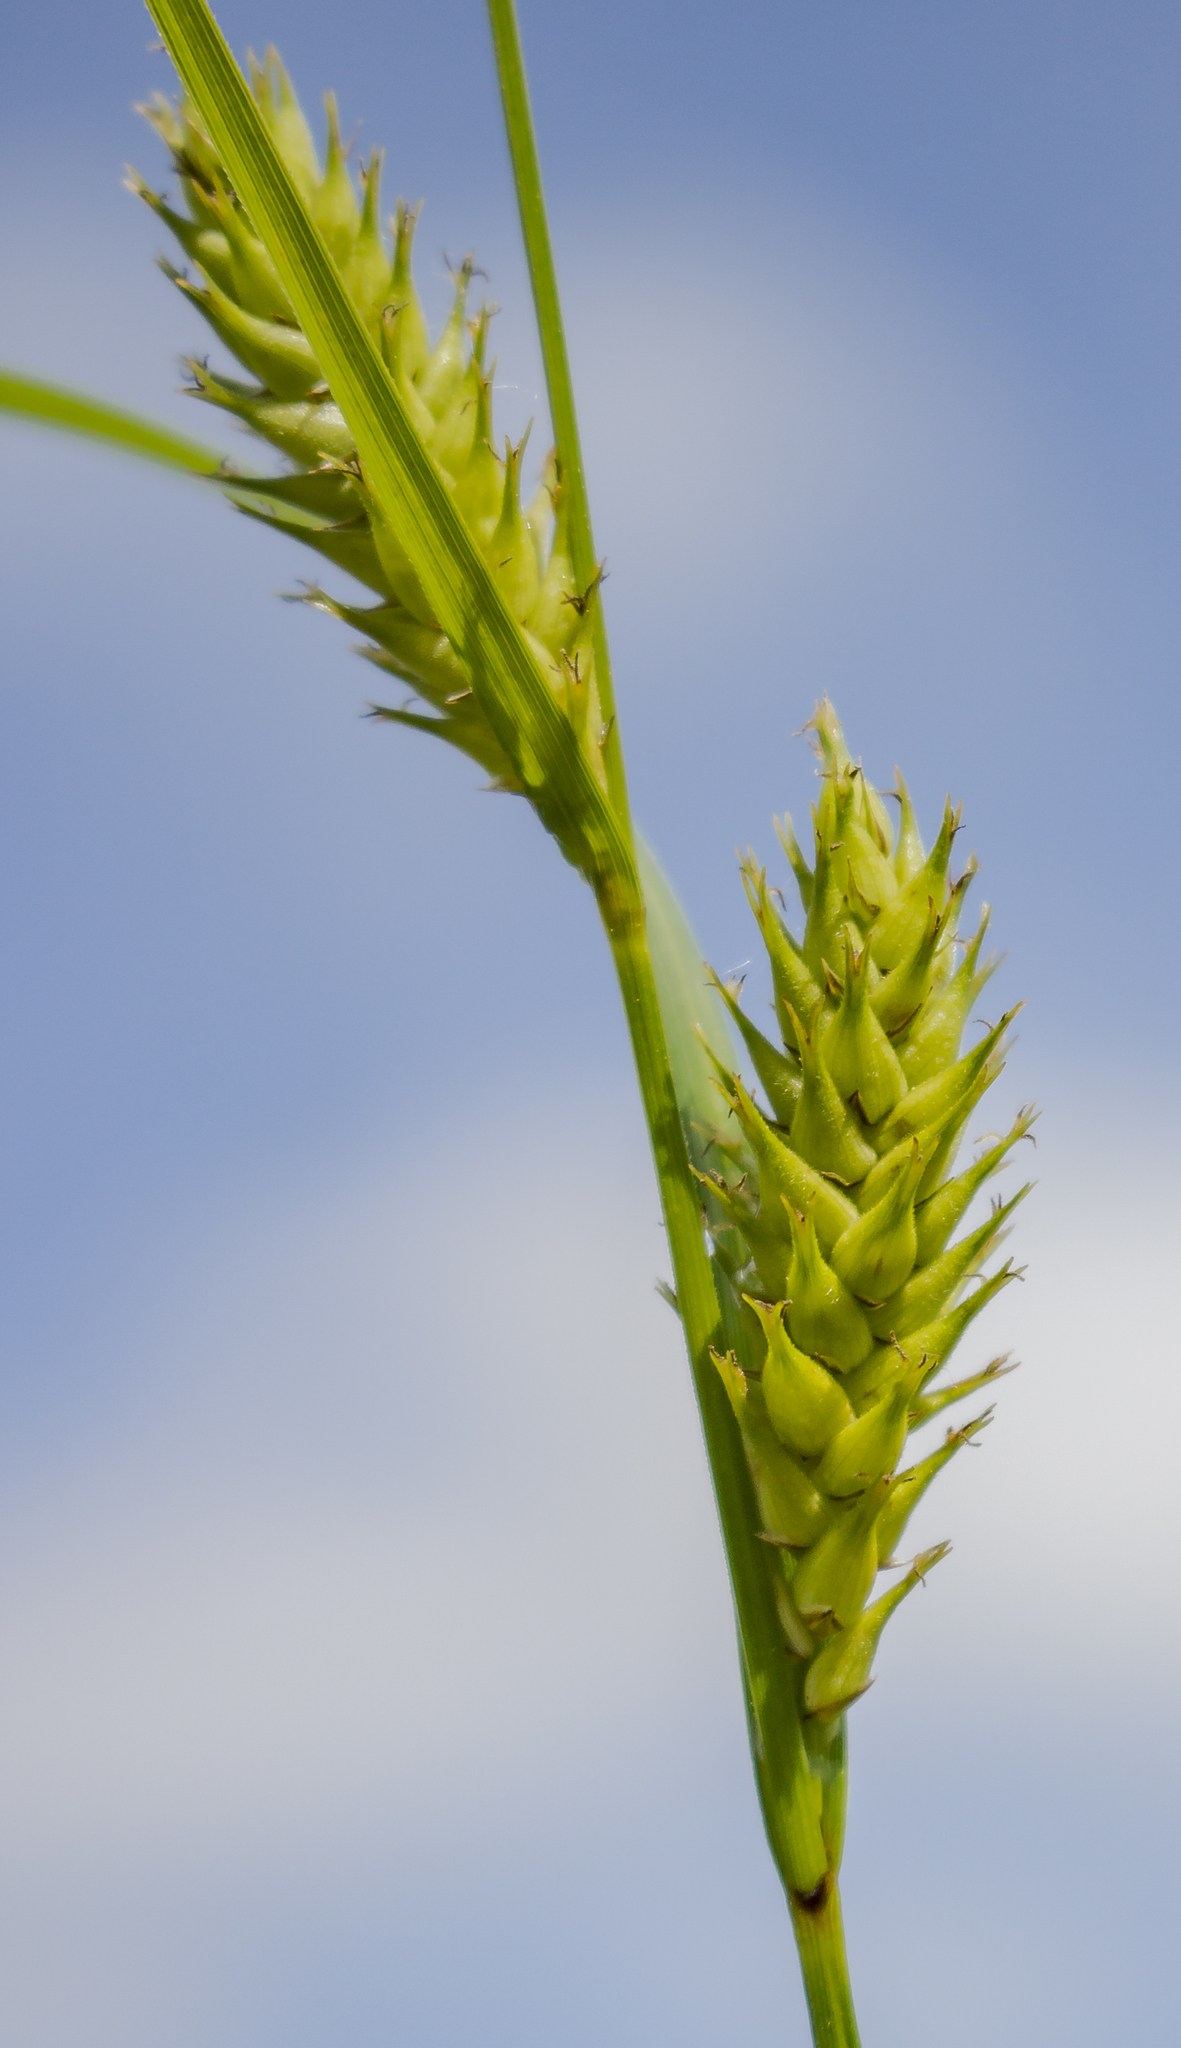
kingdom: Plantae
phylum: Tracheophyta
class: Liliopsida
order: Poales
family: Cyperaceae
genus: Carex
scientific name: Carex trichocarpa
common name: Hairy-fruited lake sedge
